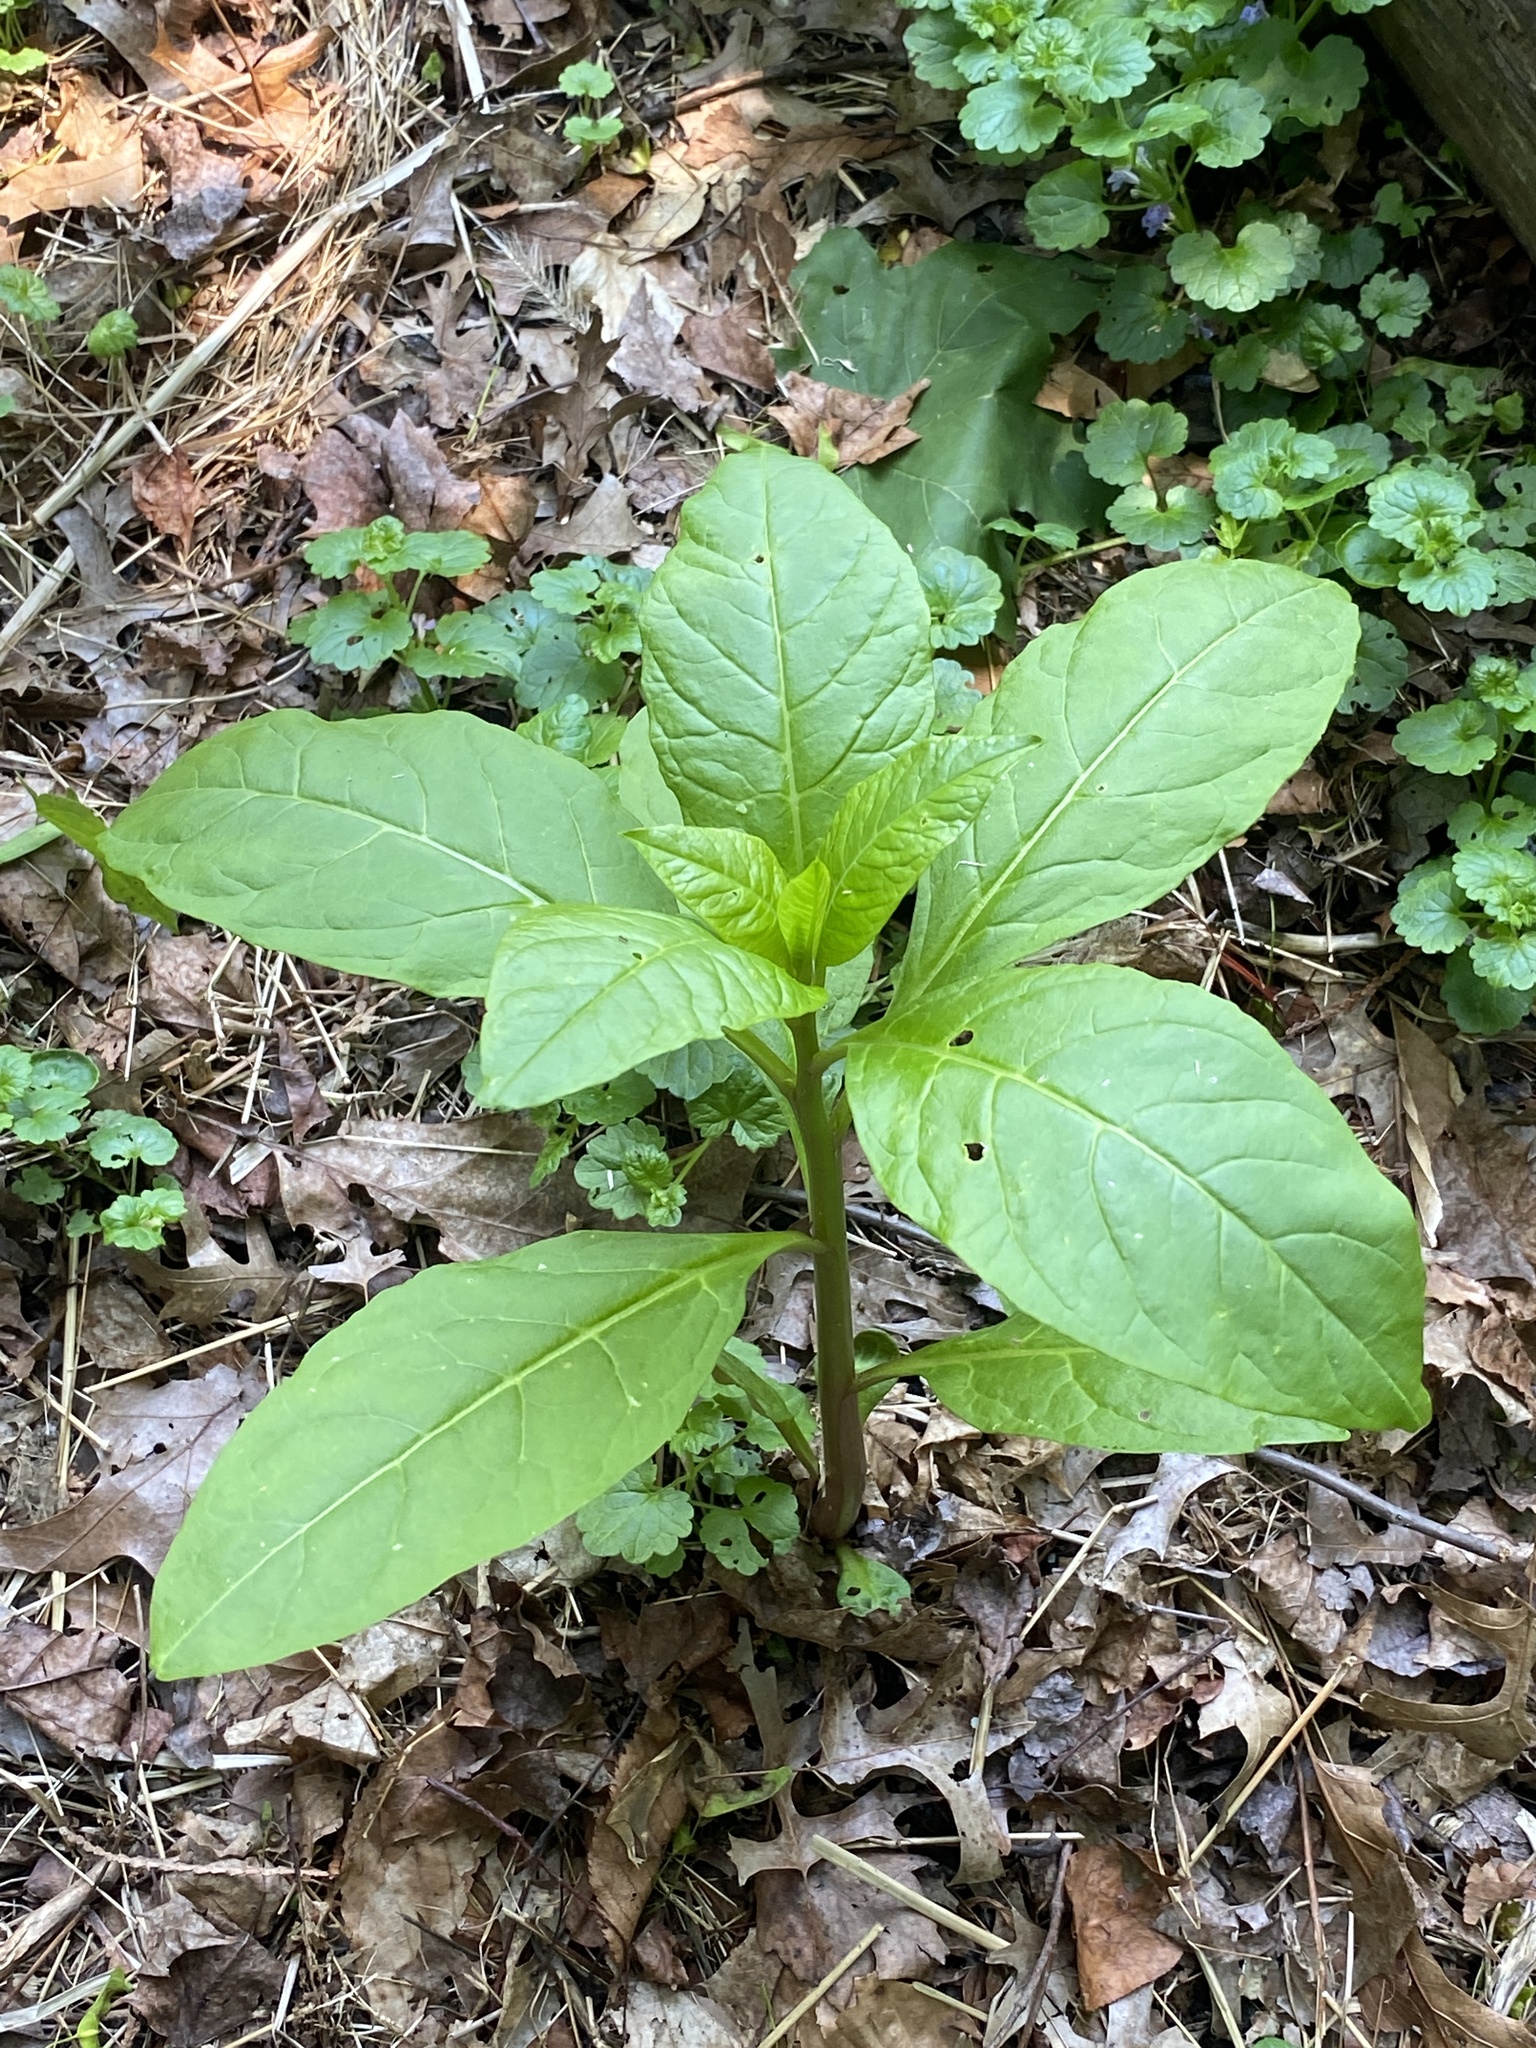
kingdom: Plantae
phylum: Tracheophyta
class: Magnoliopsida
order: Caryophyllales
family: Phytolaccaceae
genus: Phytolacca
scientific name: Phytolacca americana
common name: American pokeweed
